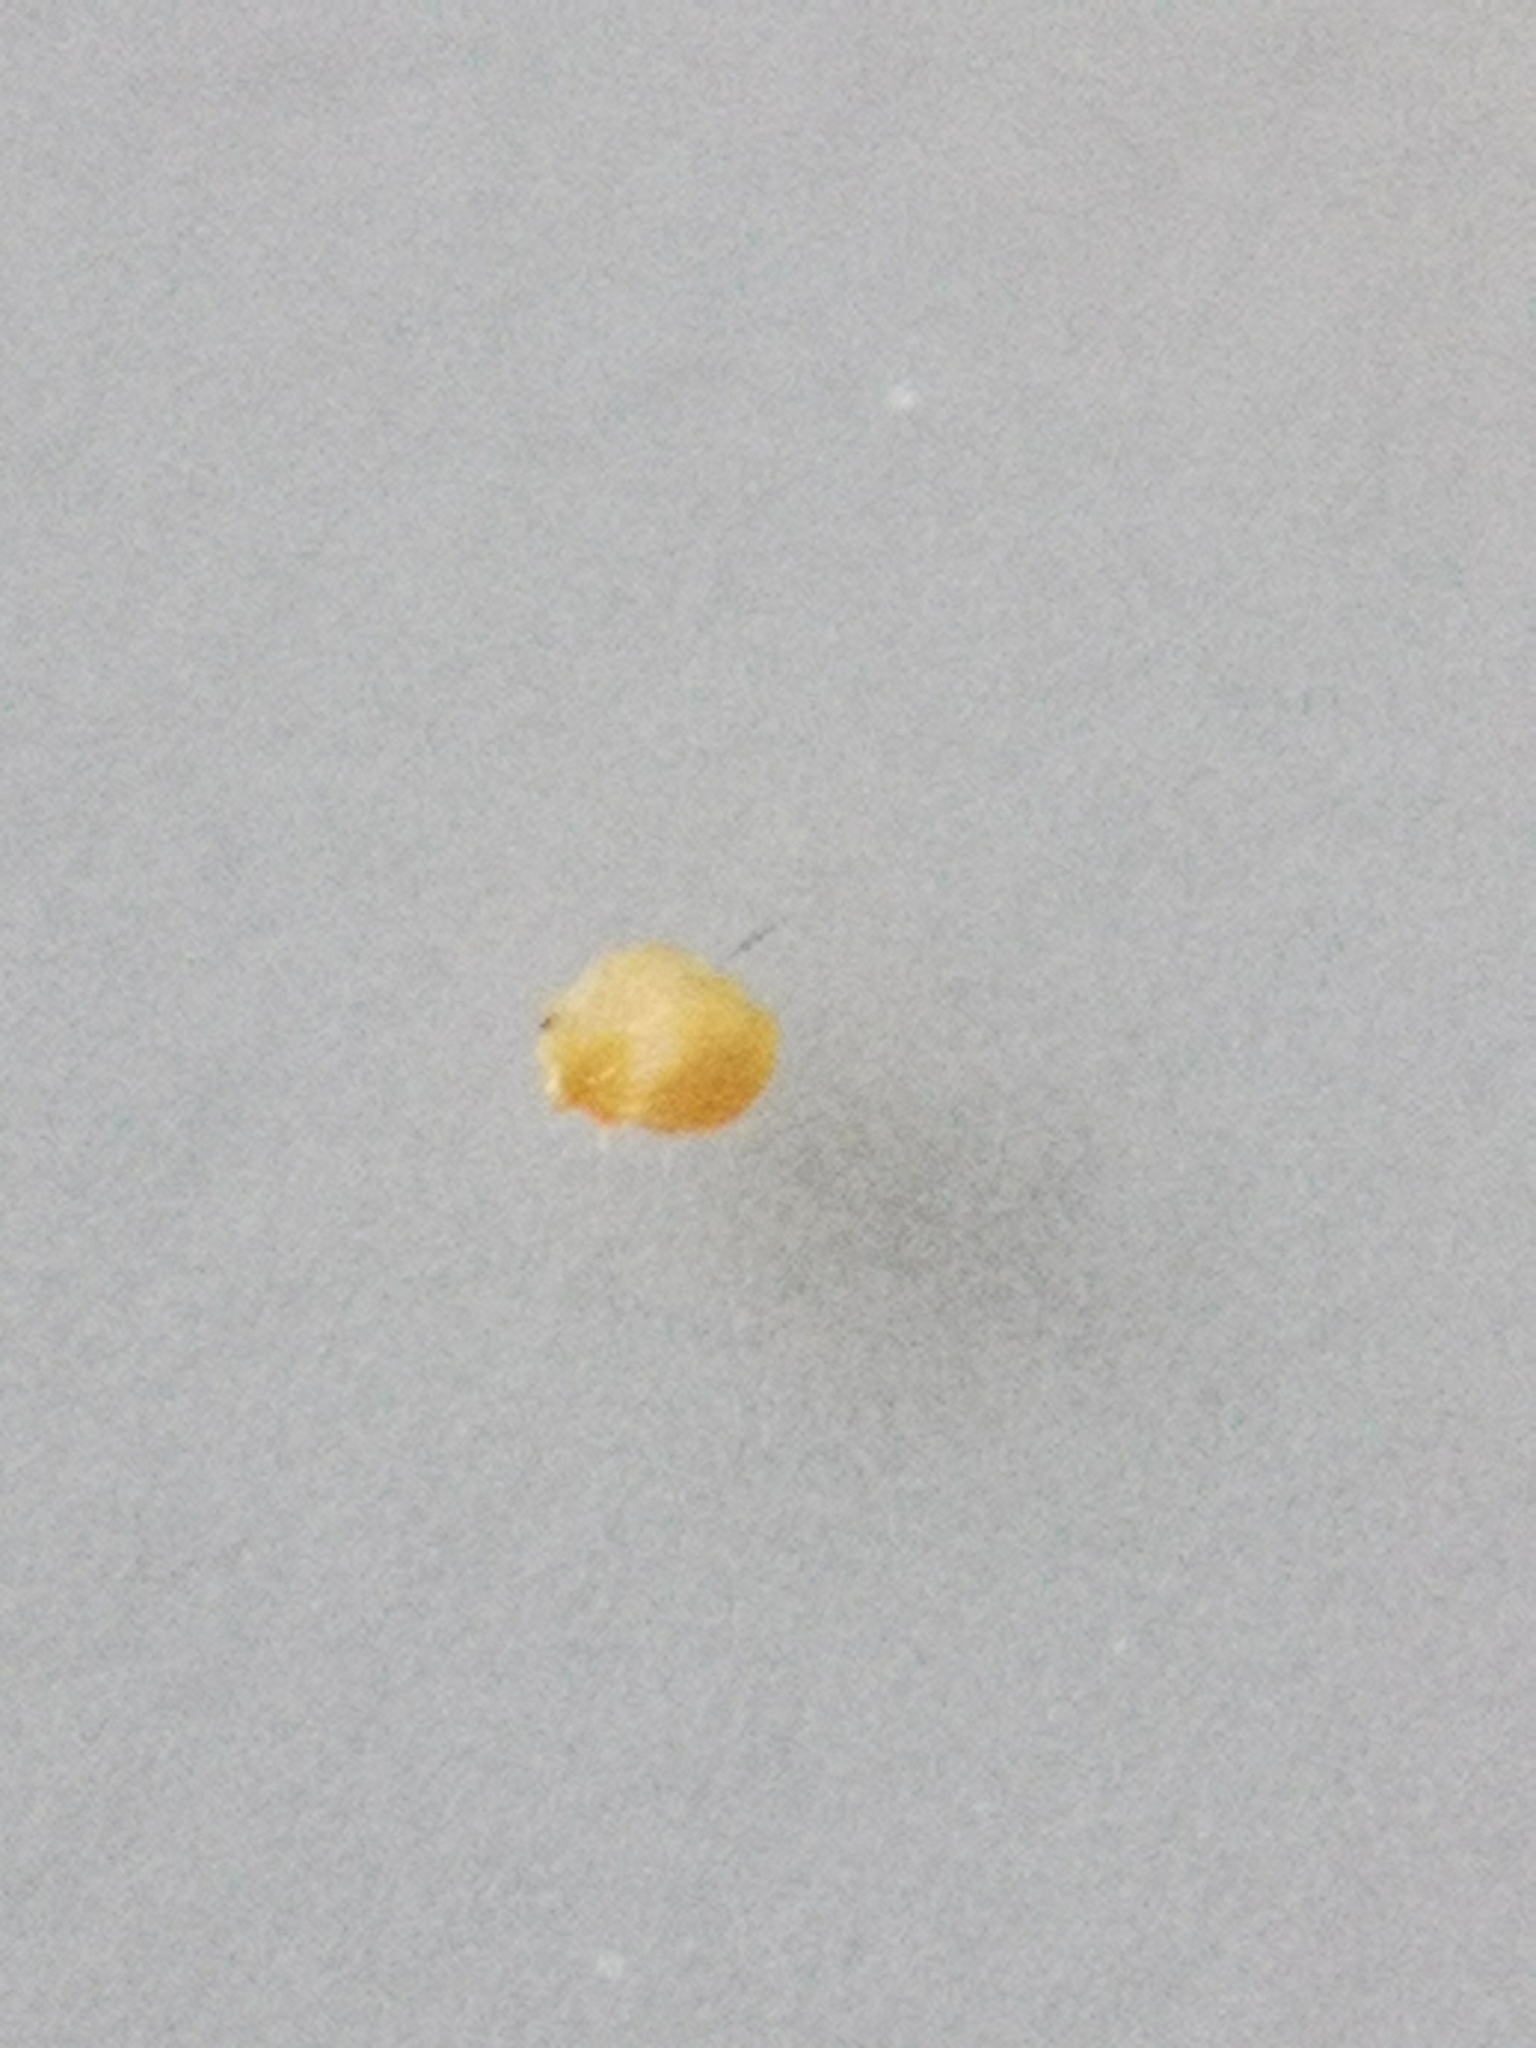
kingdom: Animalia
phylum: Arthropoda
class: Insecta
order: Diptera
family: Cecidomyiidae
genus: Dasineura
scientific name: Dasineura urticae
